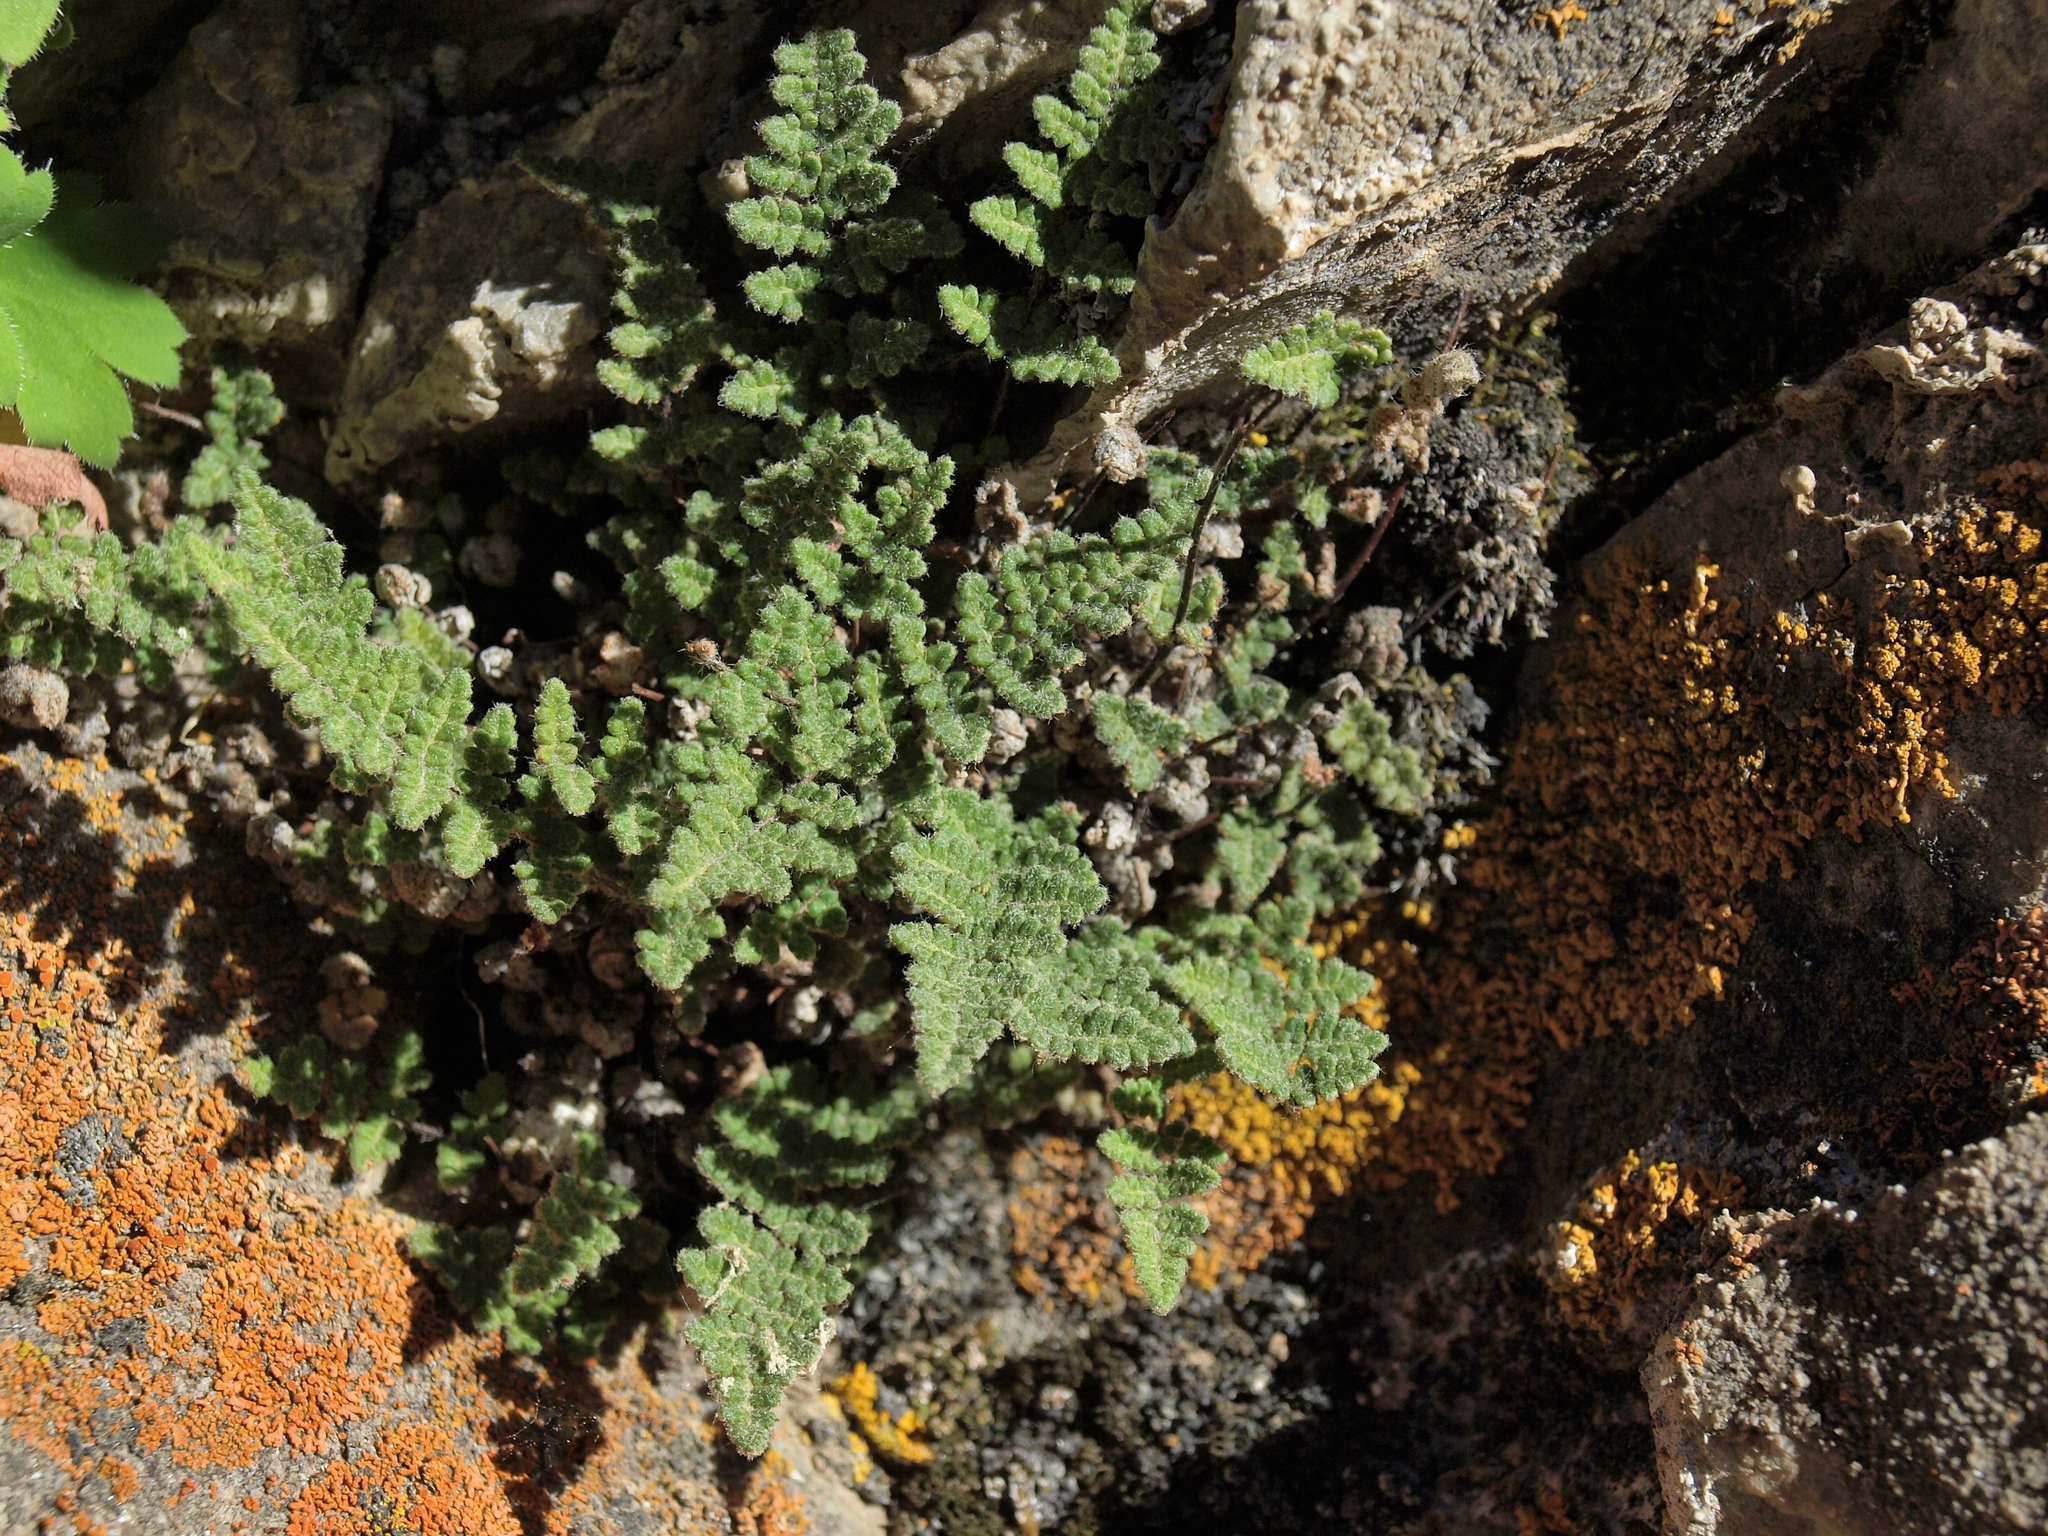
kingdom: Plantae
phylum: Tracheophyta
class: Polypodiopsida
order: Polypodiales
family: Pteridaceae
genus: Myriopteris
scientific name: Myriopteris gracilis
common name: Fee's lip fern
